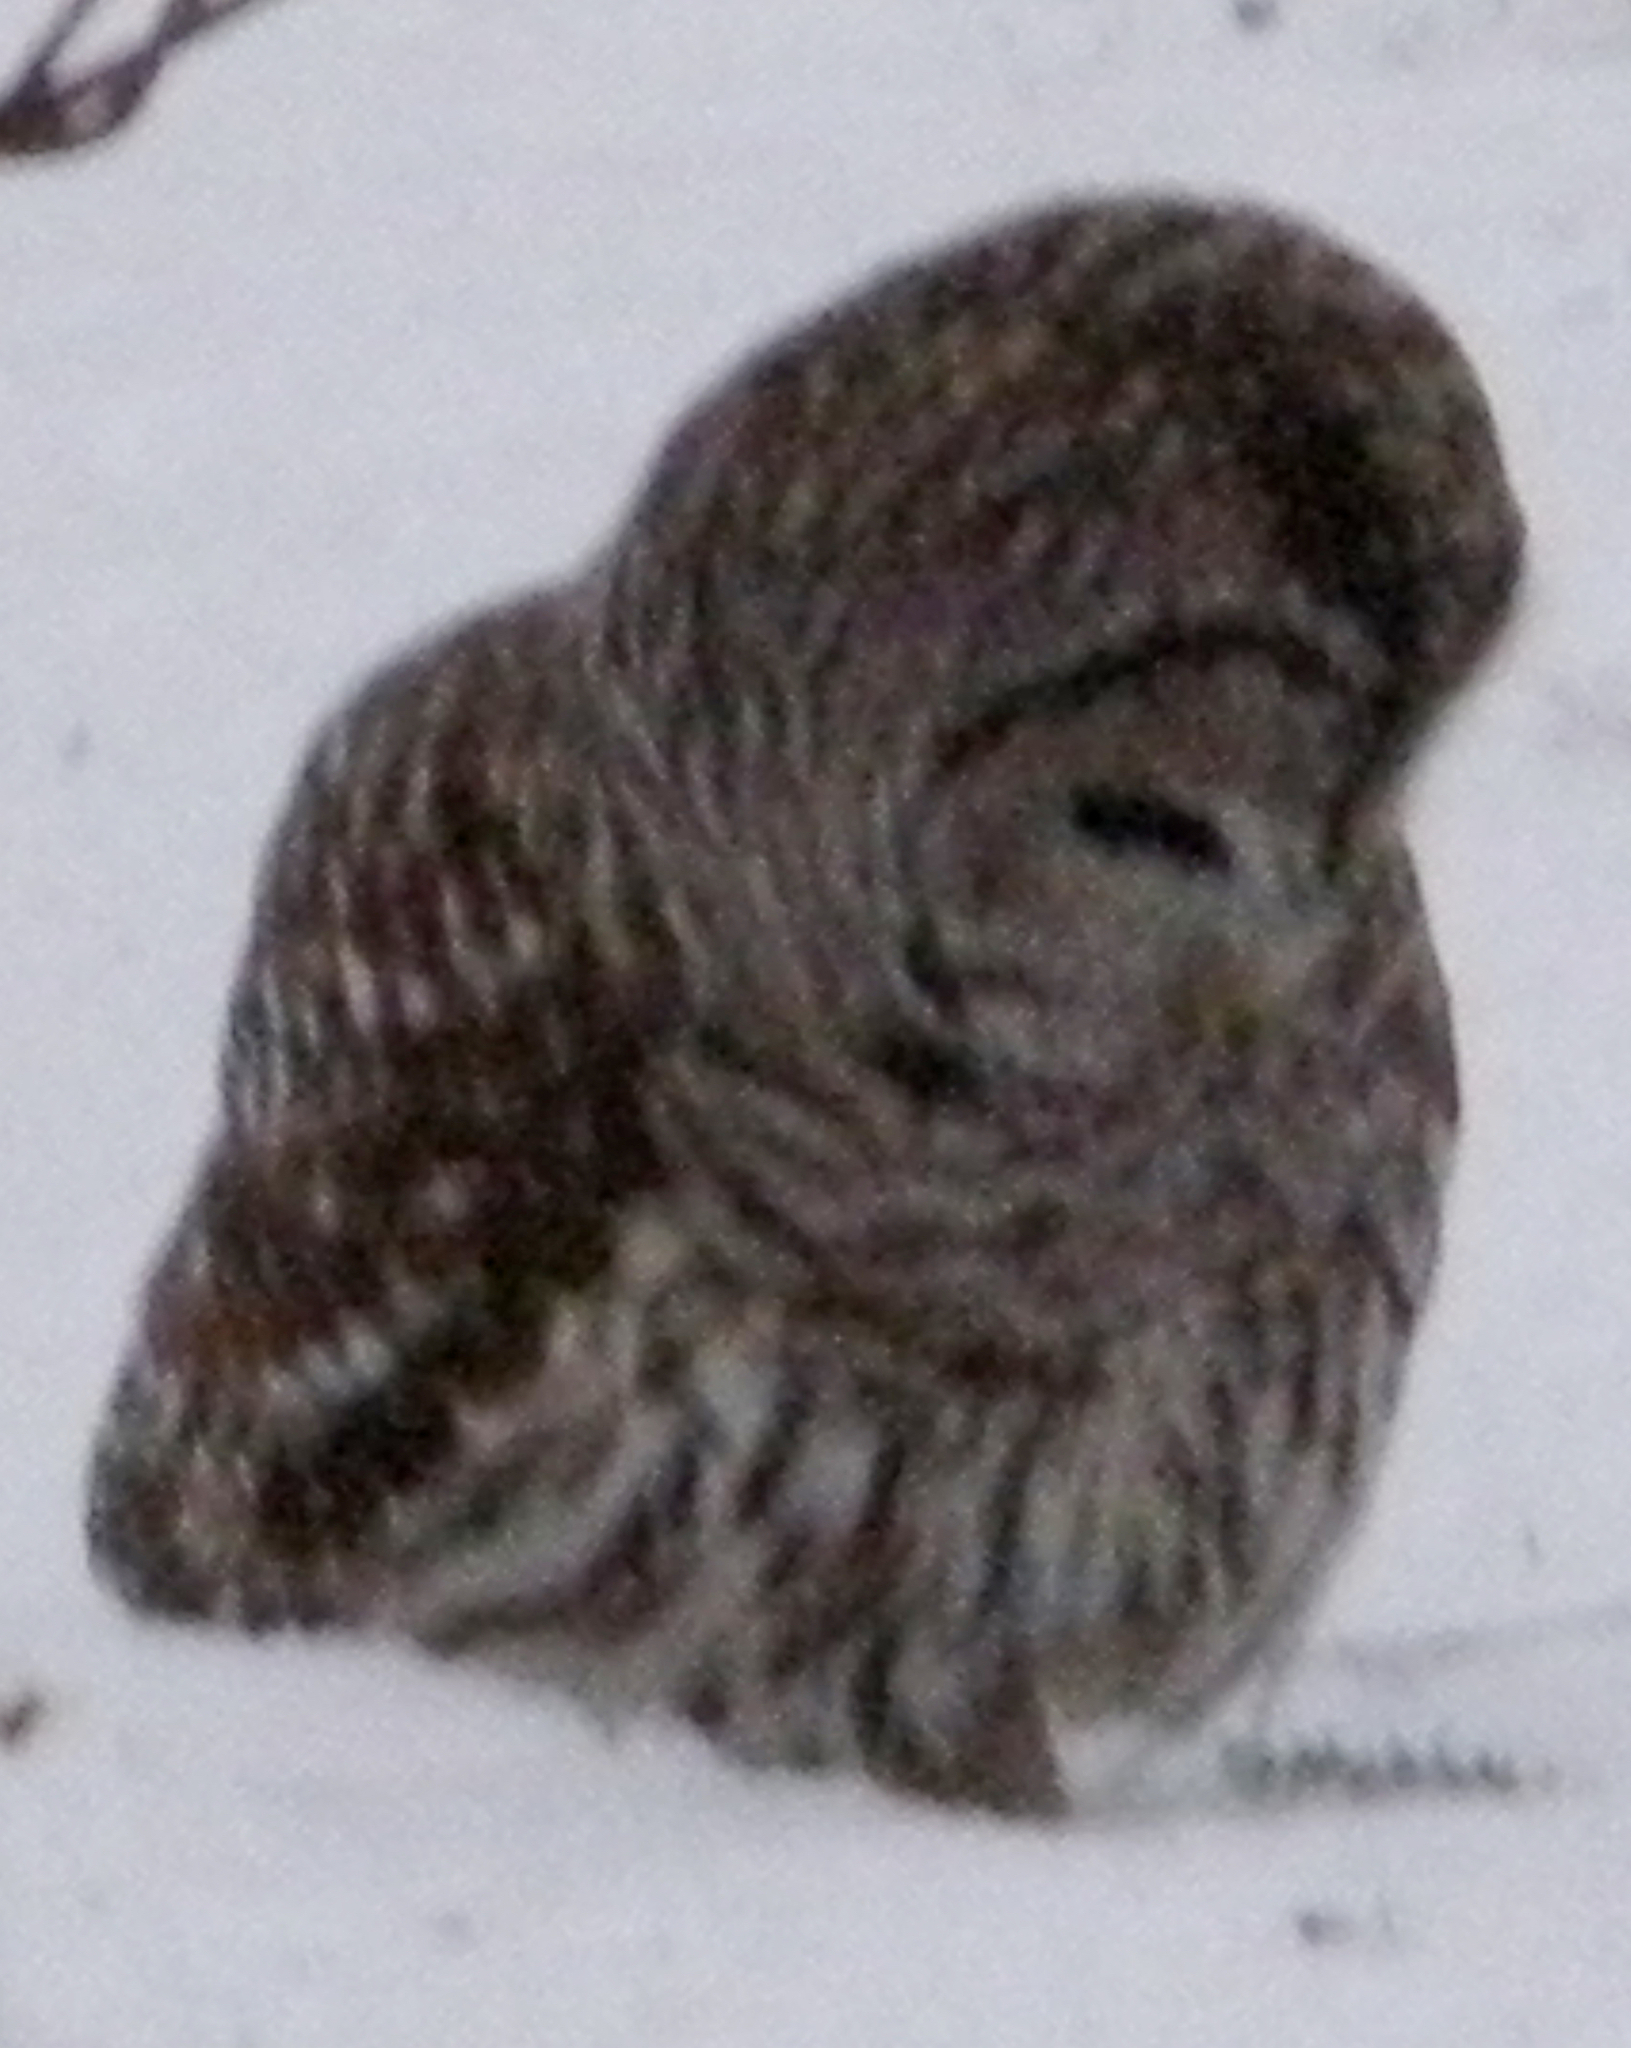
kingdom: Animalia
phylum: Chordata
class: Aves
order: Strigiformes
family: Strigidae
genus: Strix
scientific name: Strix varia
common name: Barred owl
